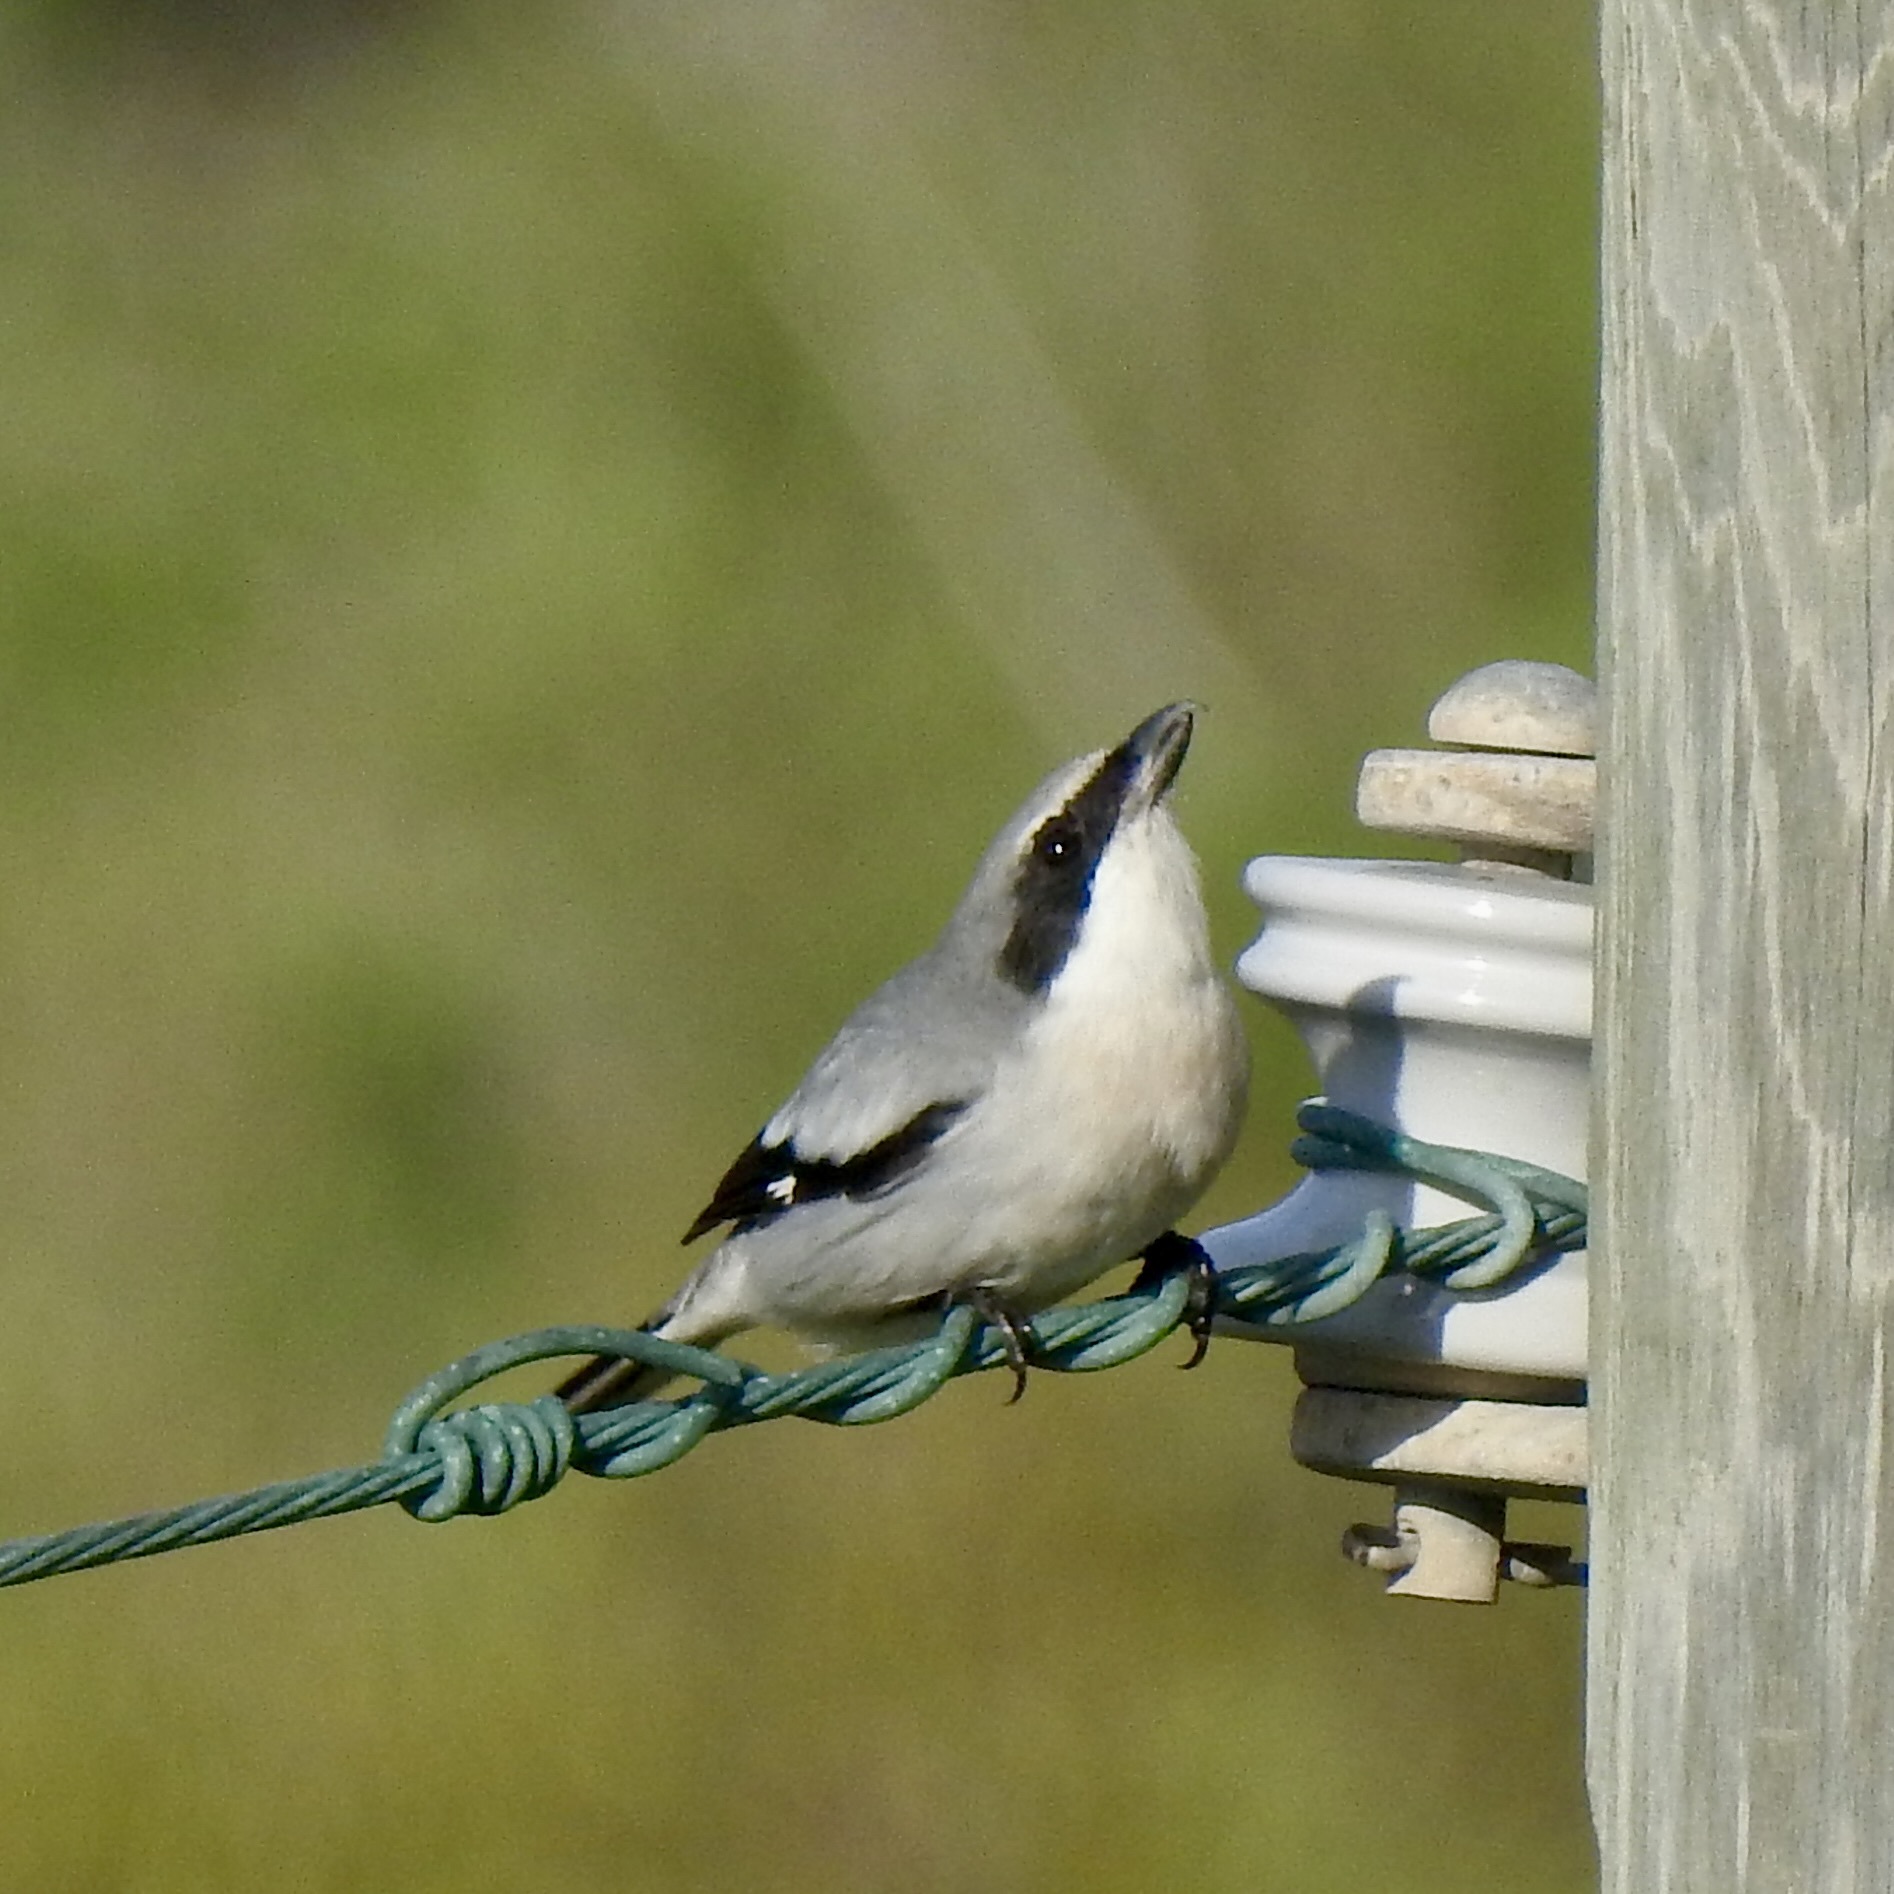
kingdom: Animalia
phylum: Chordata
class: Aves
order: Passeriformes
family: Laniidae
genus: Lanius
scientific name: Lanius ludovicianus
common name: Loggerhead shrike
